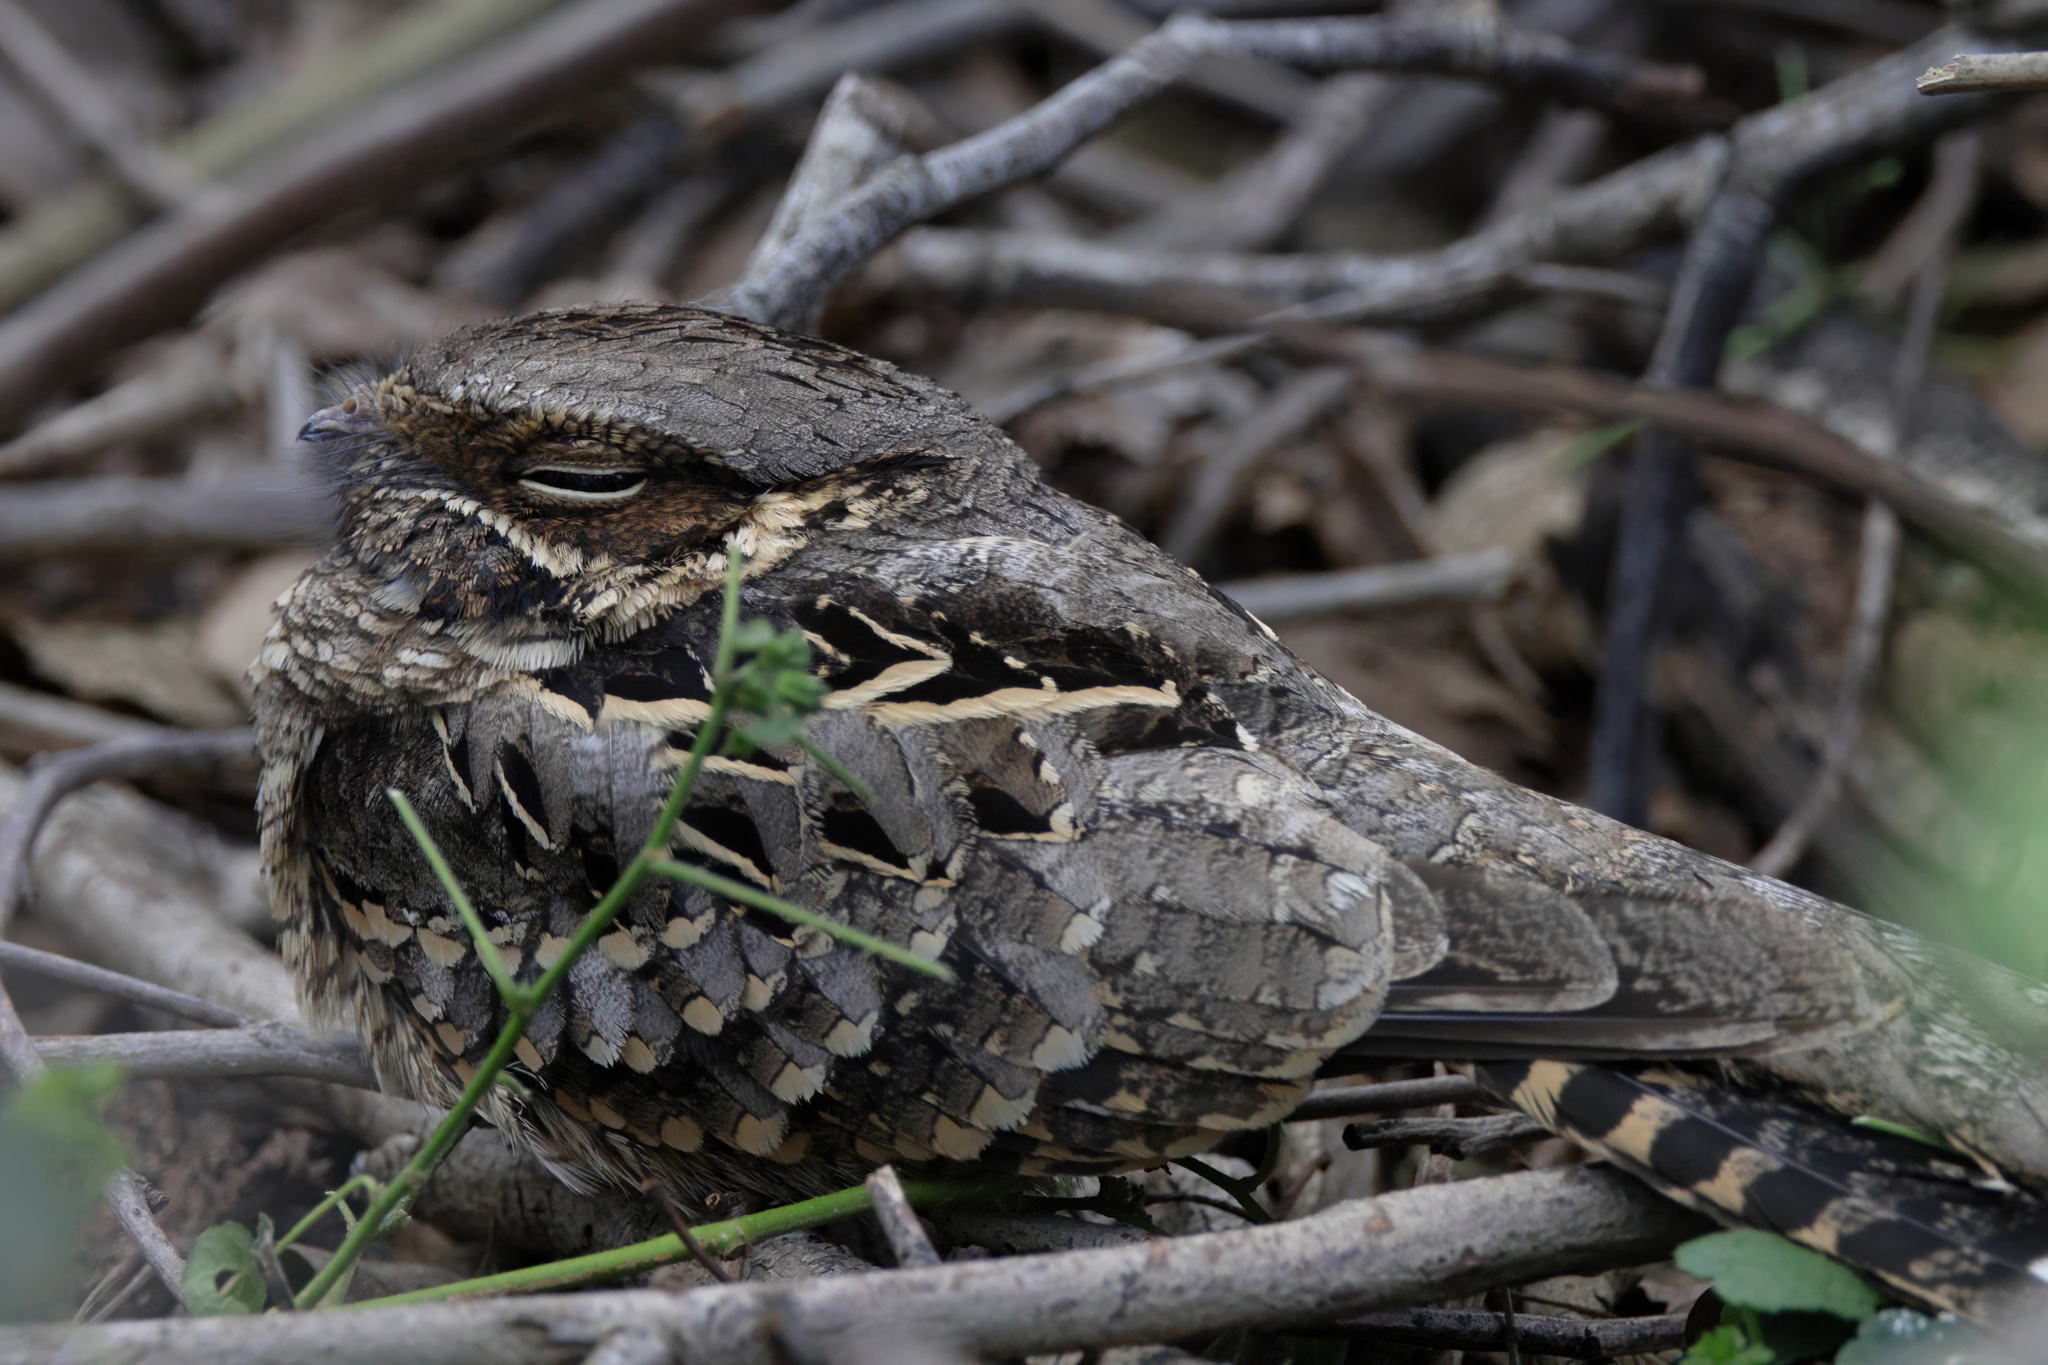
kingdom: Animalia
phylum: Chordata
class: Aves
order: Caprimulgiformes
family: Caprimulgidae
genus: Nyctidromus
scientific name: Nyctidromus albicollis
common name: Pauraque
